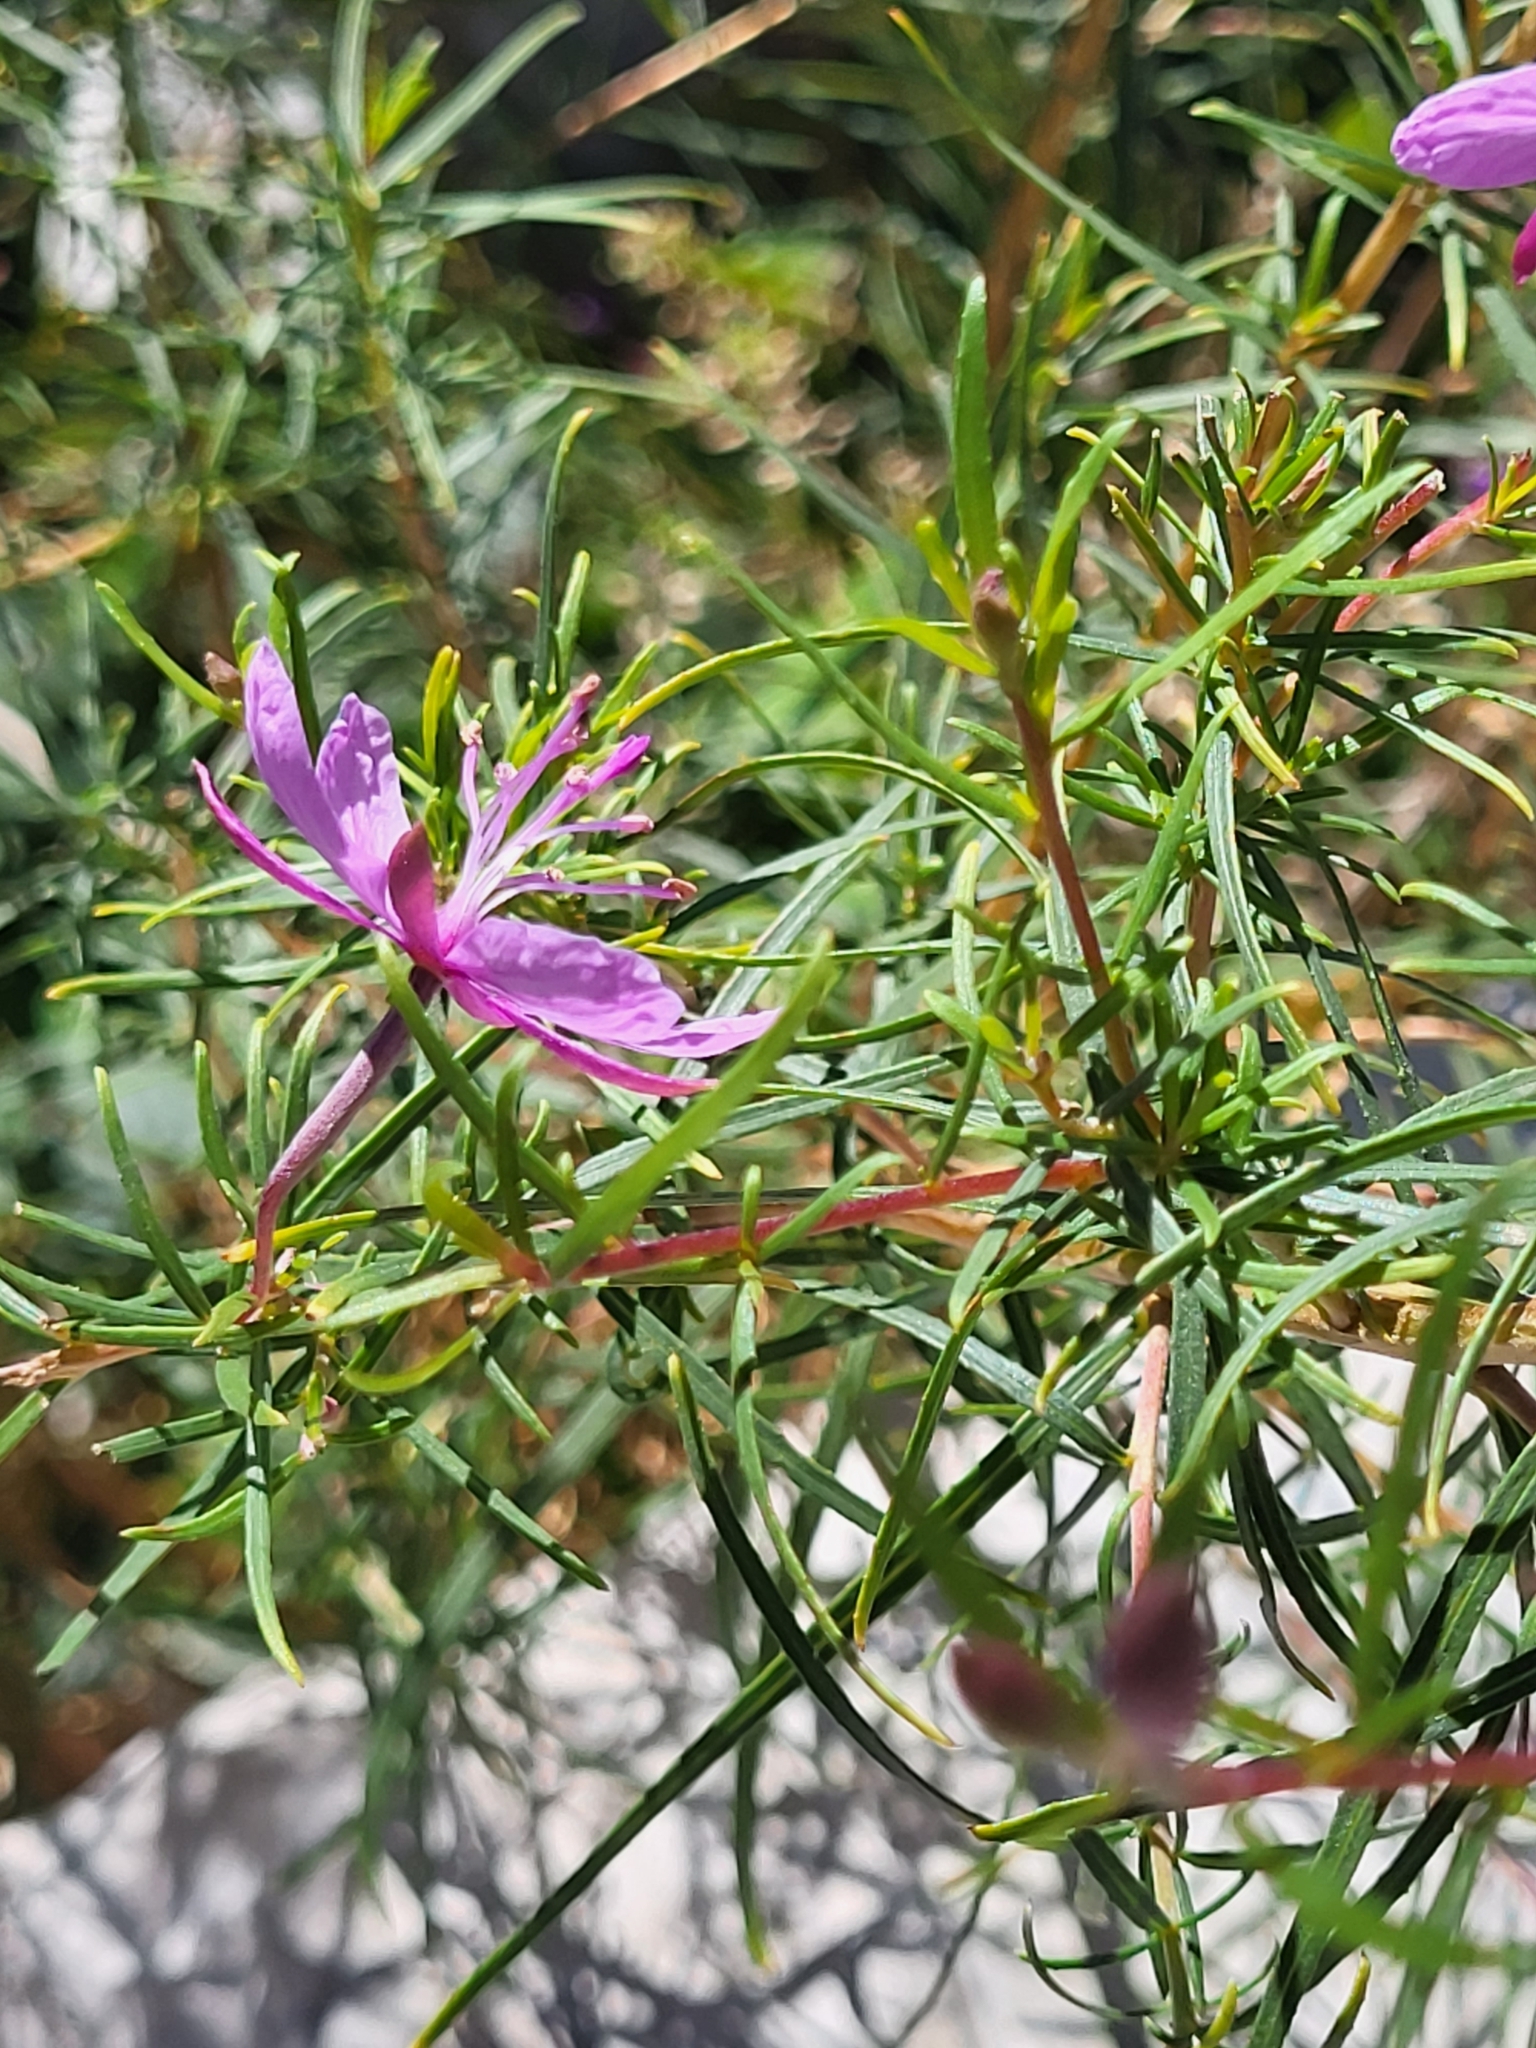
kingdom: Plantae
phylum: Tracheophyta
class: Magnoliopsida
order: Myrtales
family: Onagraceae
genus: Chamaenerion
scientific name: Chamaenerion dodonaei
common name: Rosemary-leaved willowherb
